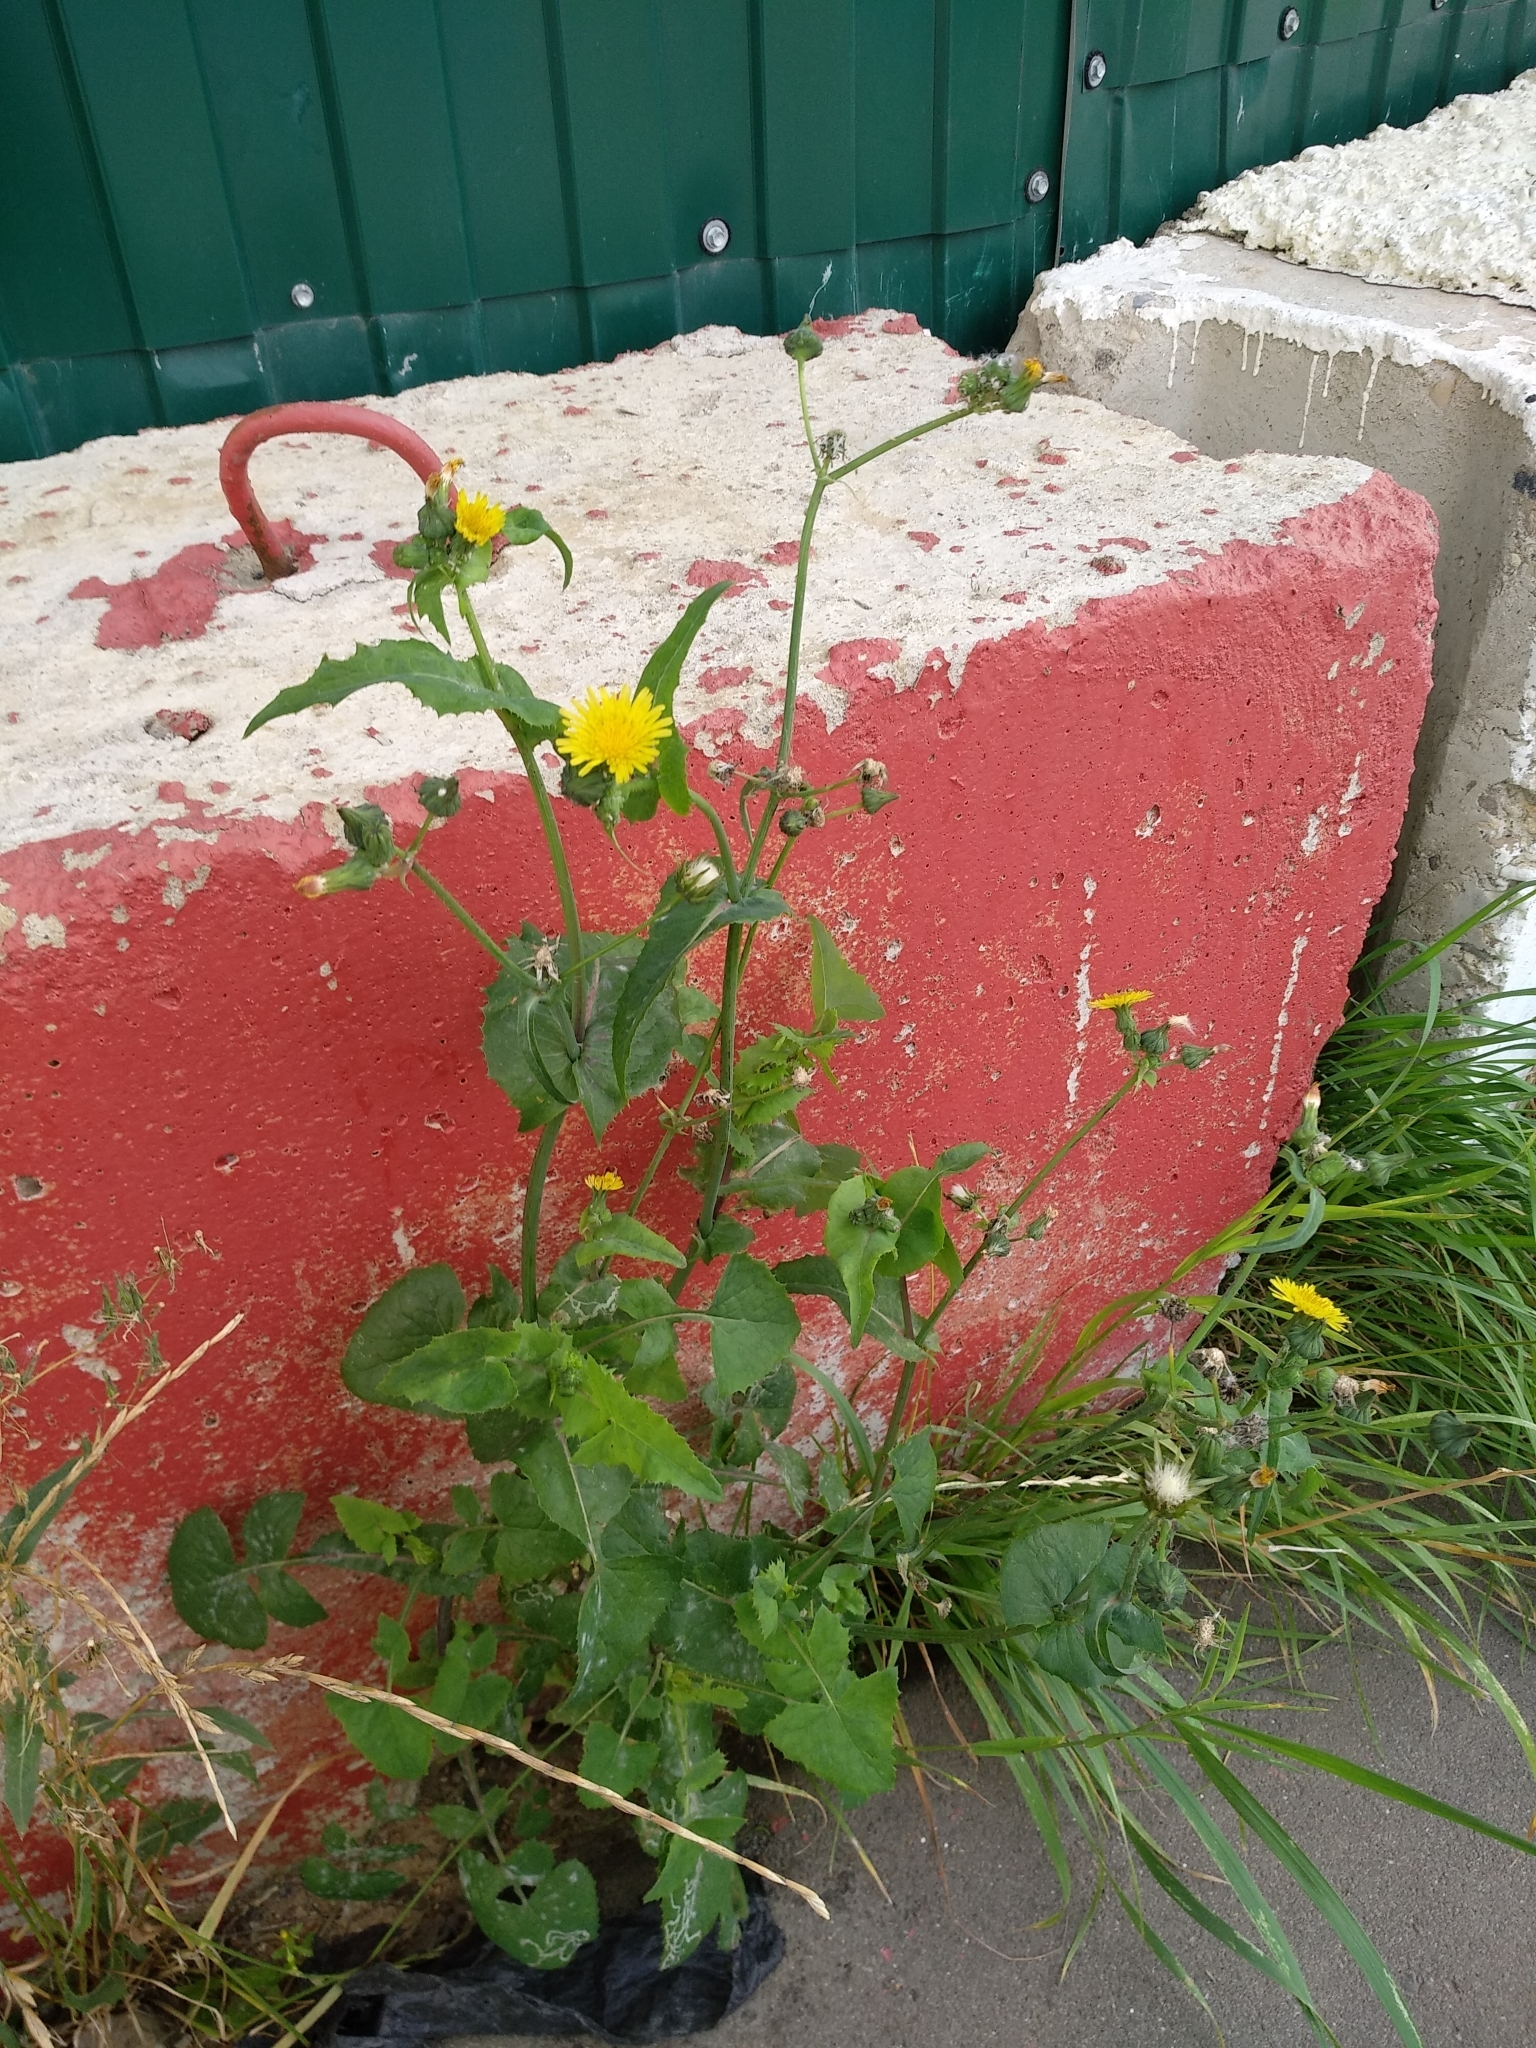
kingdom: Plantae
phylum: Tracheophyta
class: Magnoliopsida
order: Asterales
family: Asteraceae
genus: Sonchus
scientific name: Sonchus oleraceus
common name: Common sowthistle
